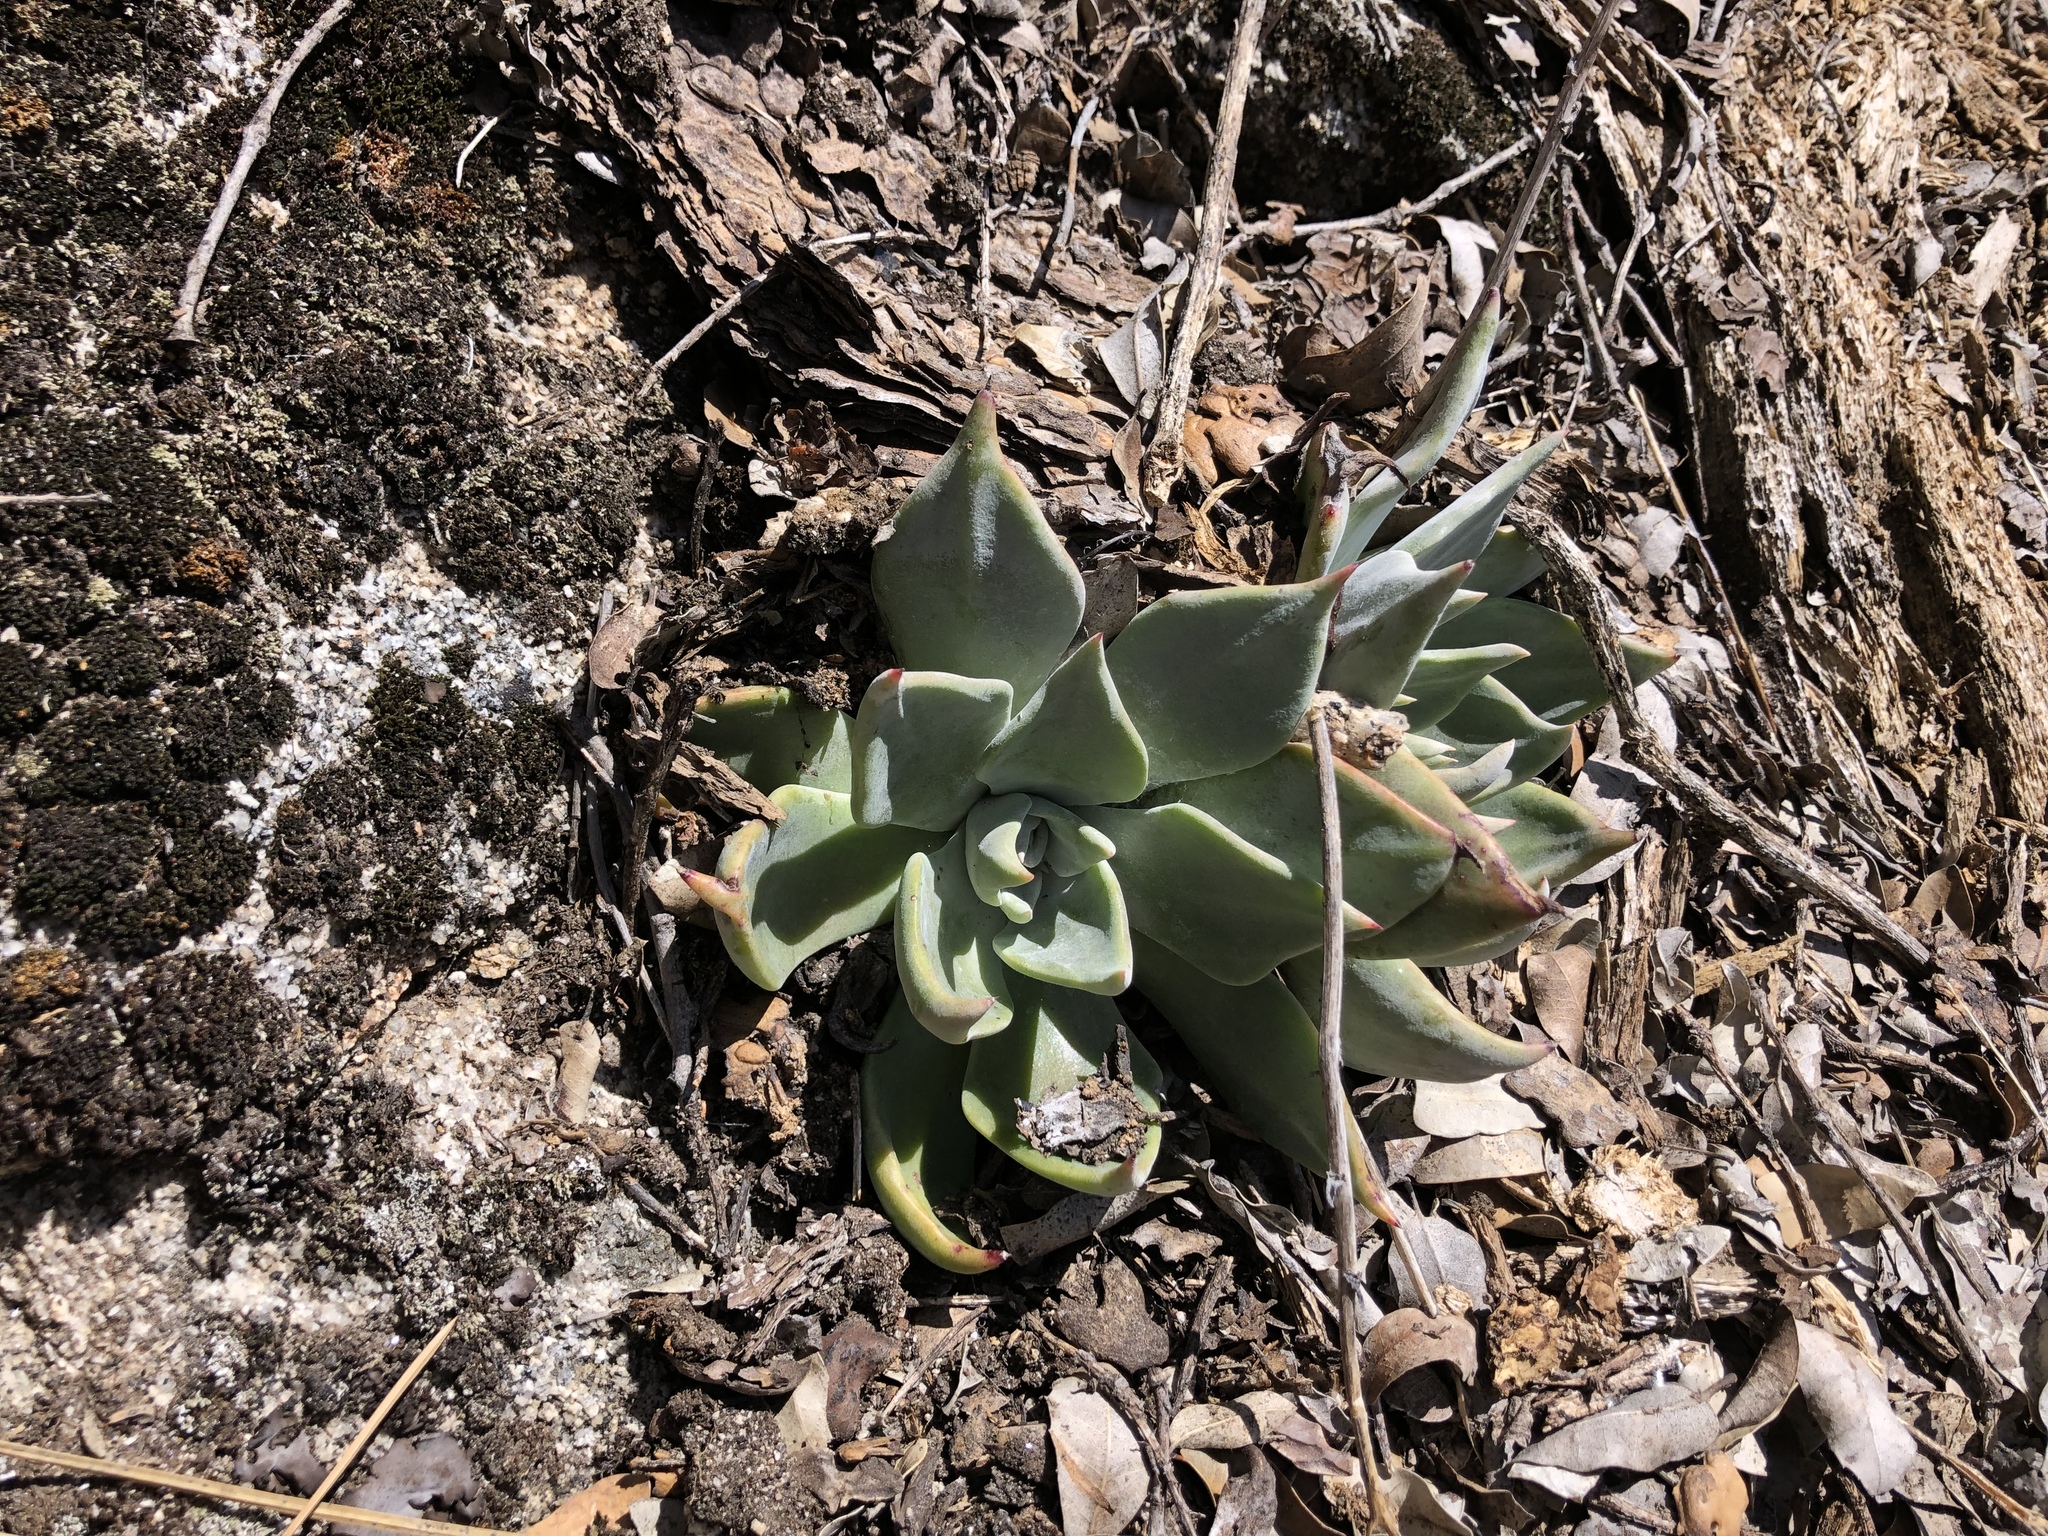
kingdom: Plantae
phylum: Tracheophyta
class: Magnoliopsida
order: Saxifragales
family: Crassulaceae
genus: Dudleya
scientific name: Dudleya cymosa
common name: Canyon dudleya
